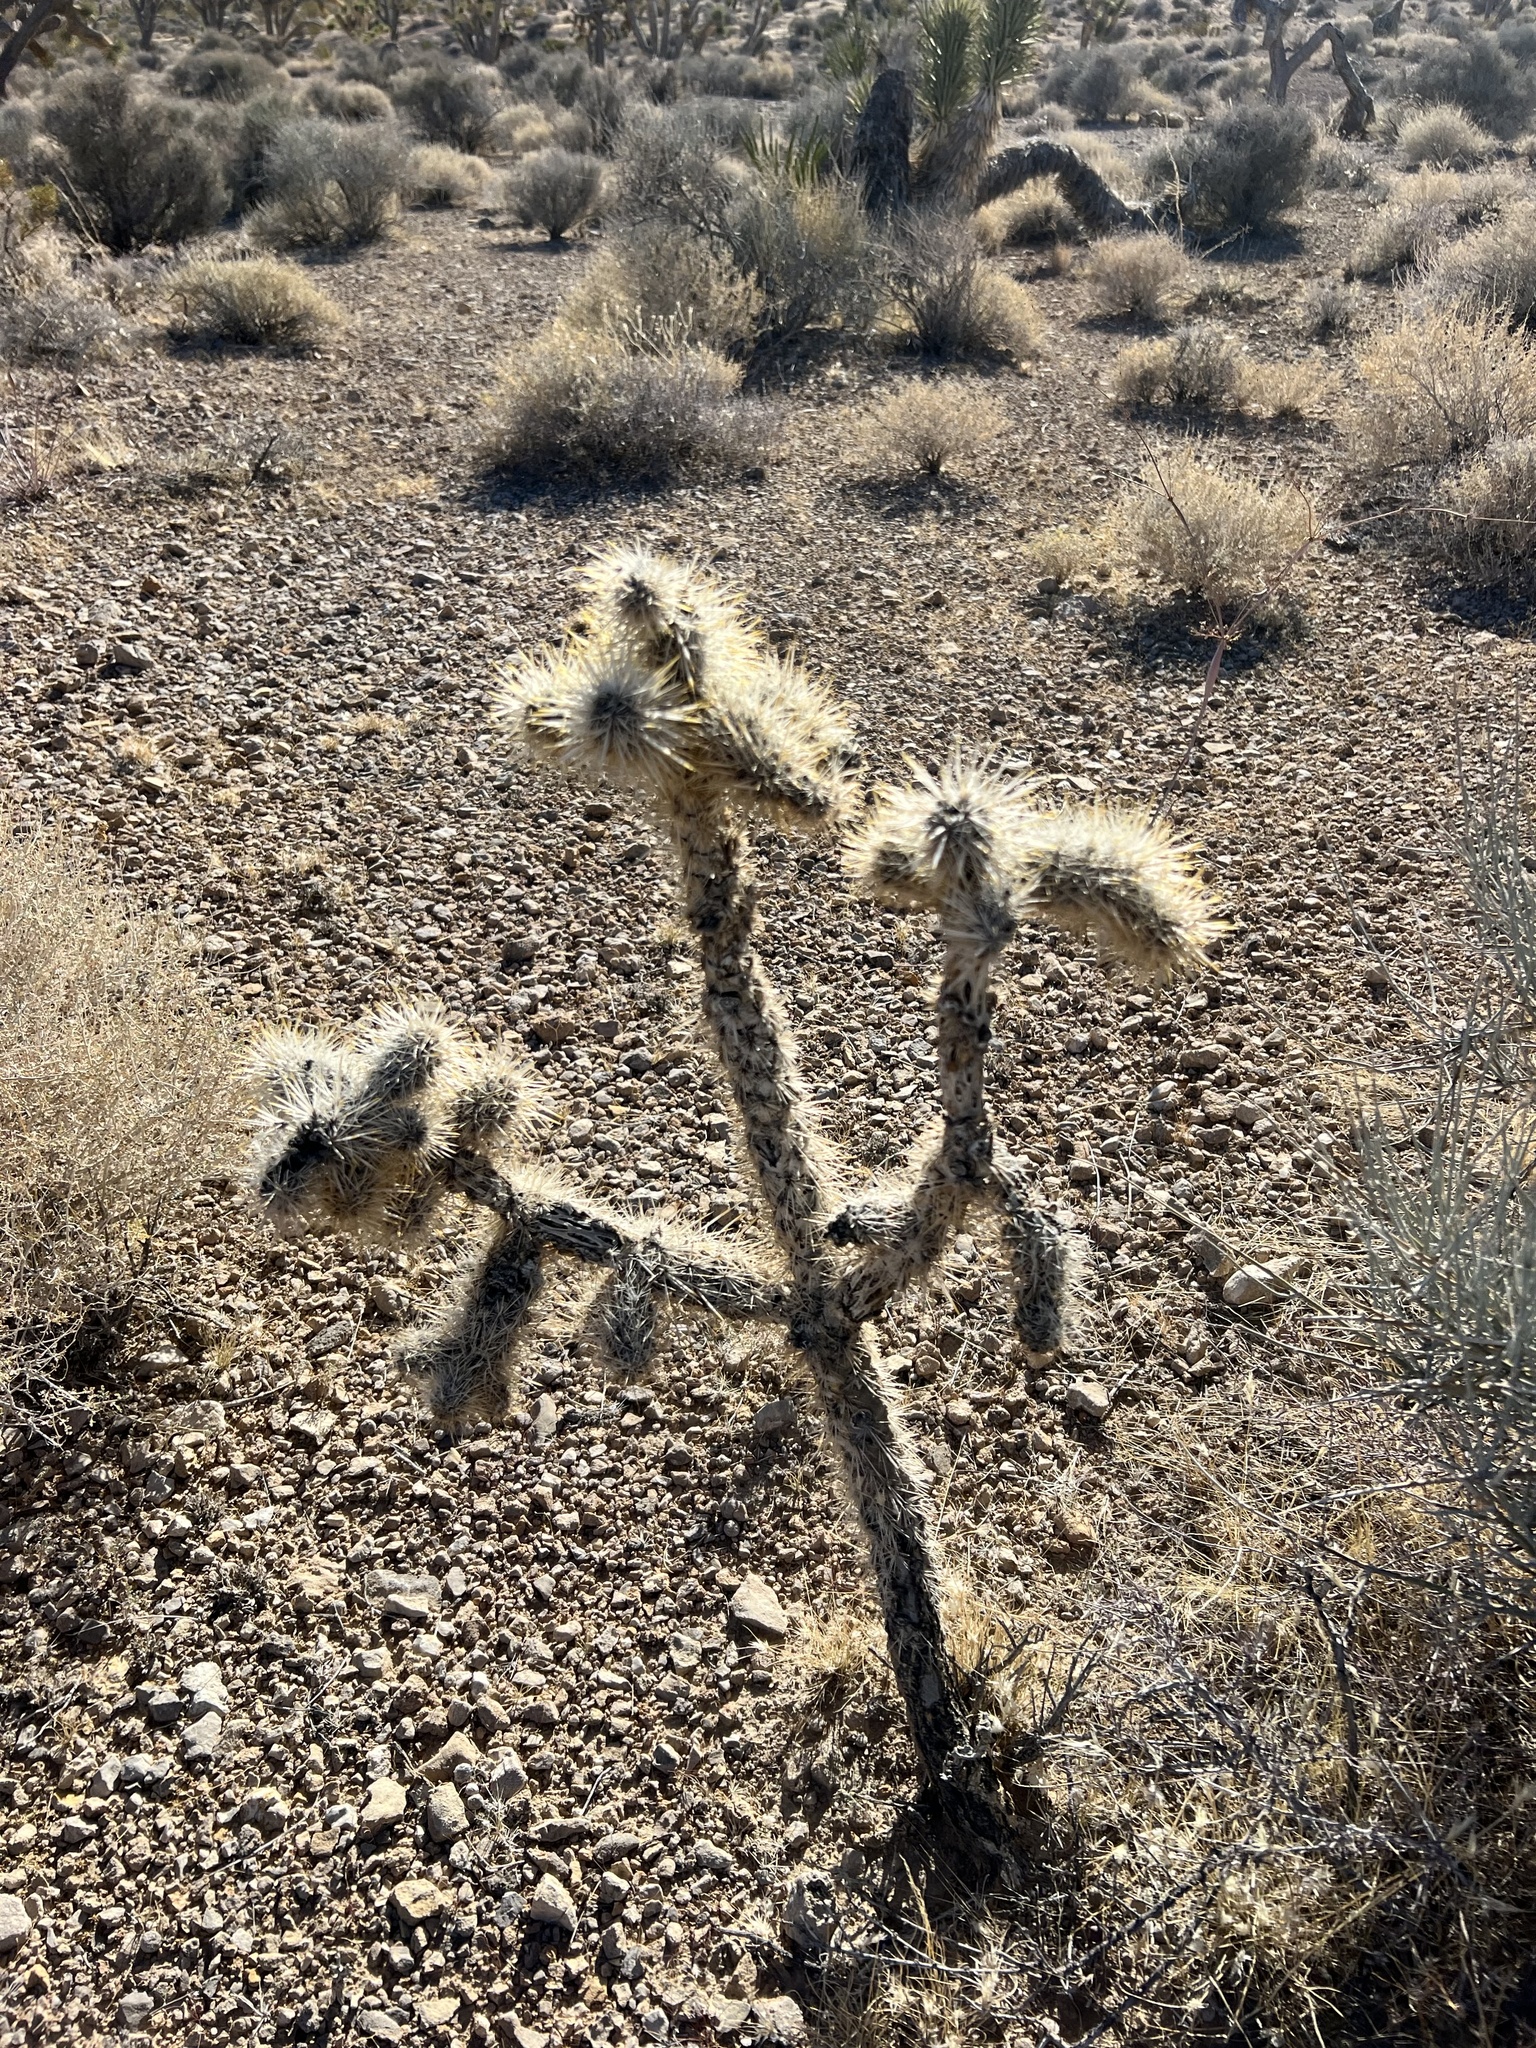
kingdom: Plantae
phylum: Tracheophyta
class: Magnoliopsida
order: Caryophyllales
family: Cactaceae
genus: Cylindropuntia
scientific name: Cylindropuntia echinocarpa
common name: Ground cholla
